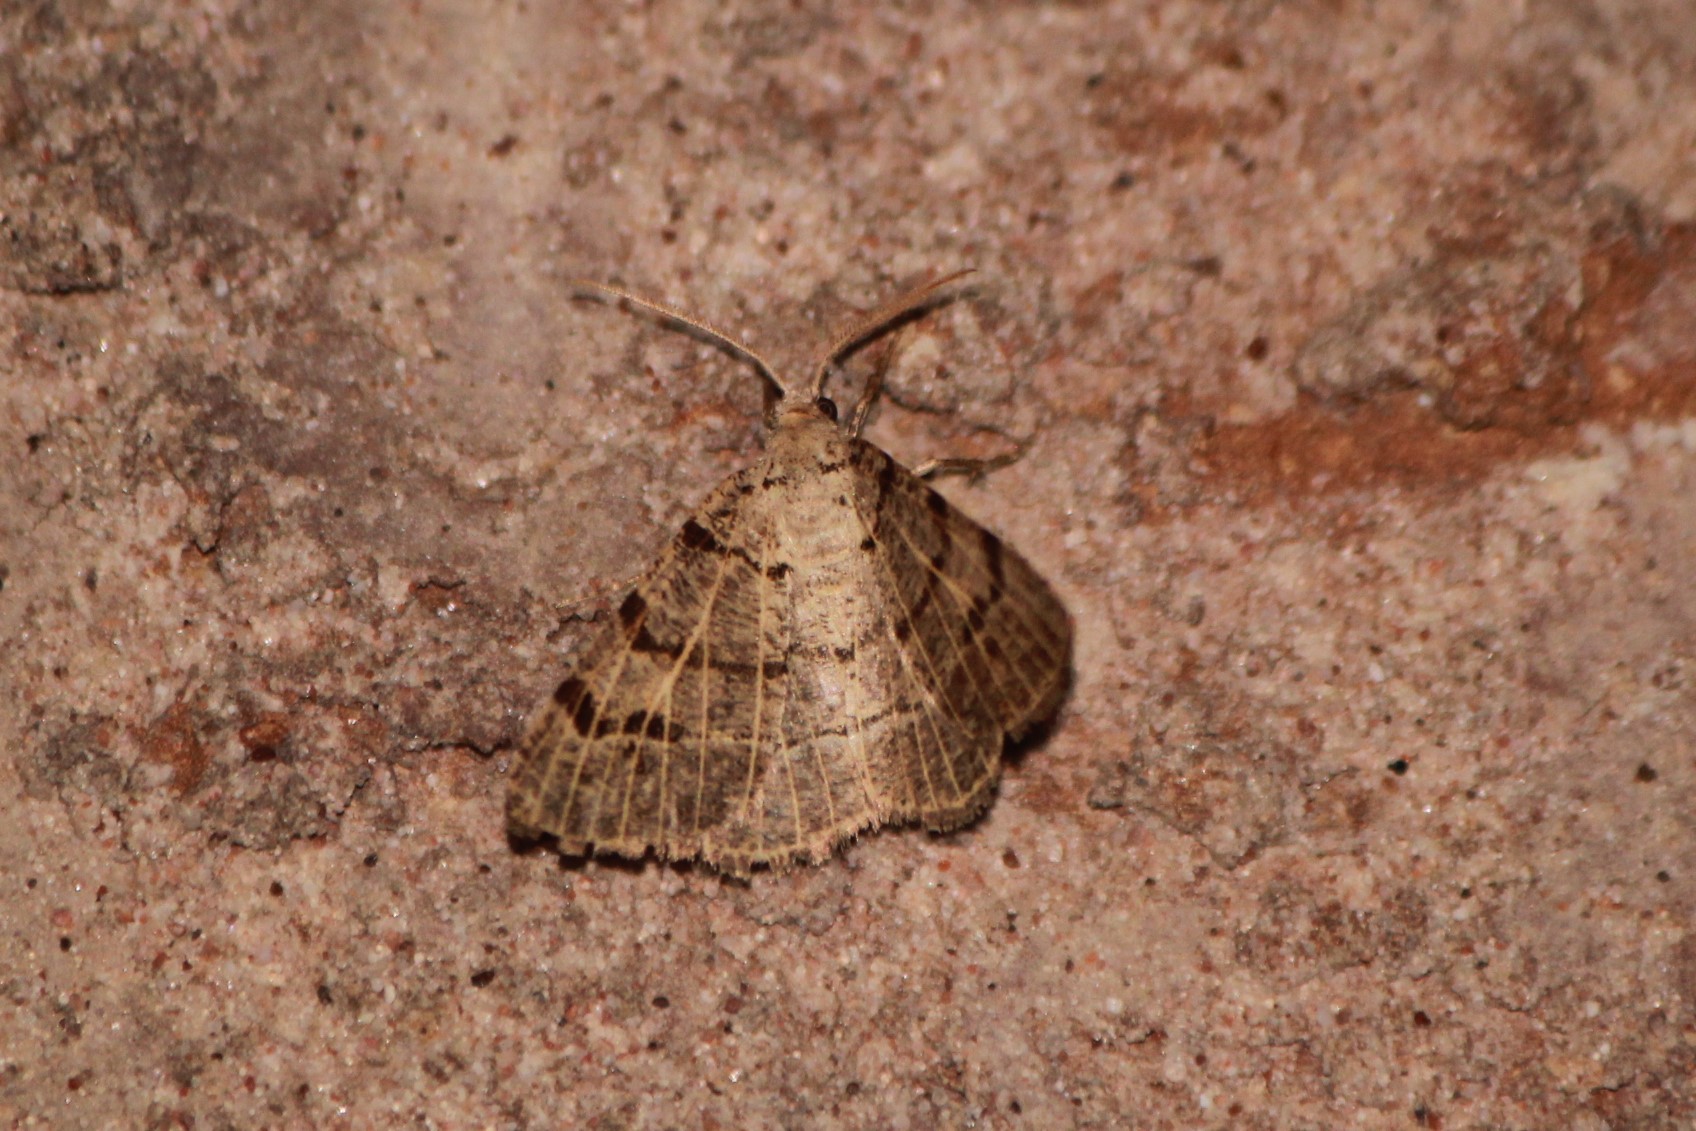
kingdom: Animalia
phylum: Arthropoda
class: Insecta
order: Lepidoptera
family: Geometridae
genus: Isturgia
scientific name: Isturgia dislocaria
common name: Pale-viened enconista
